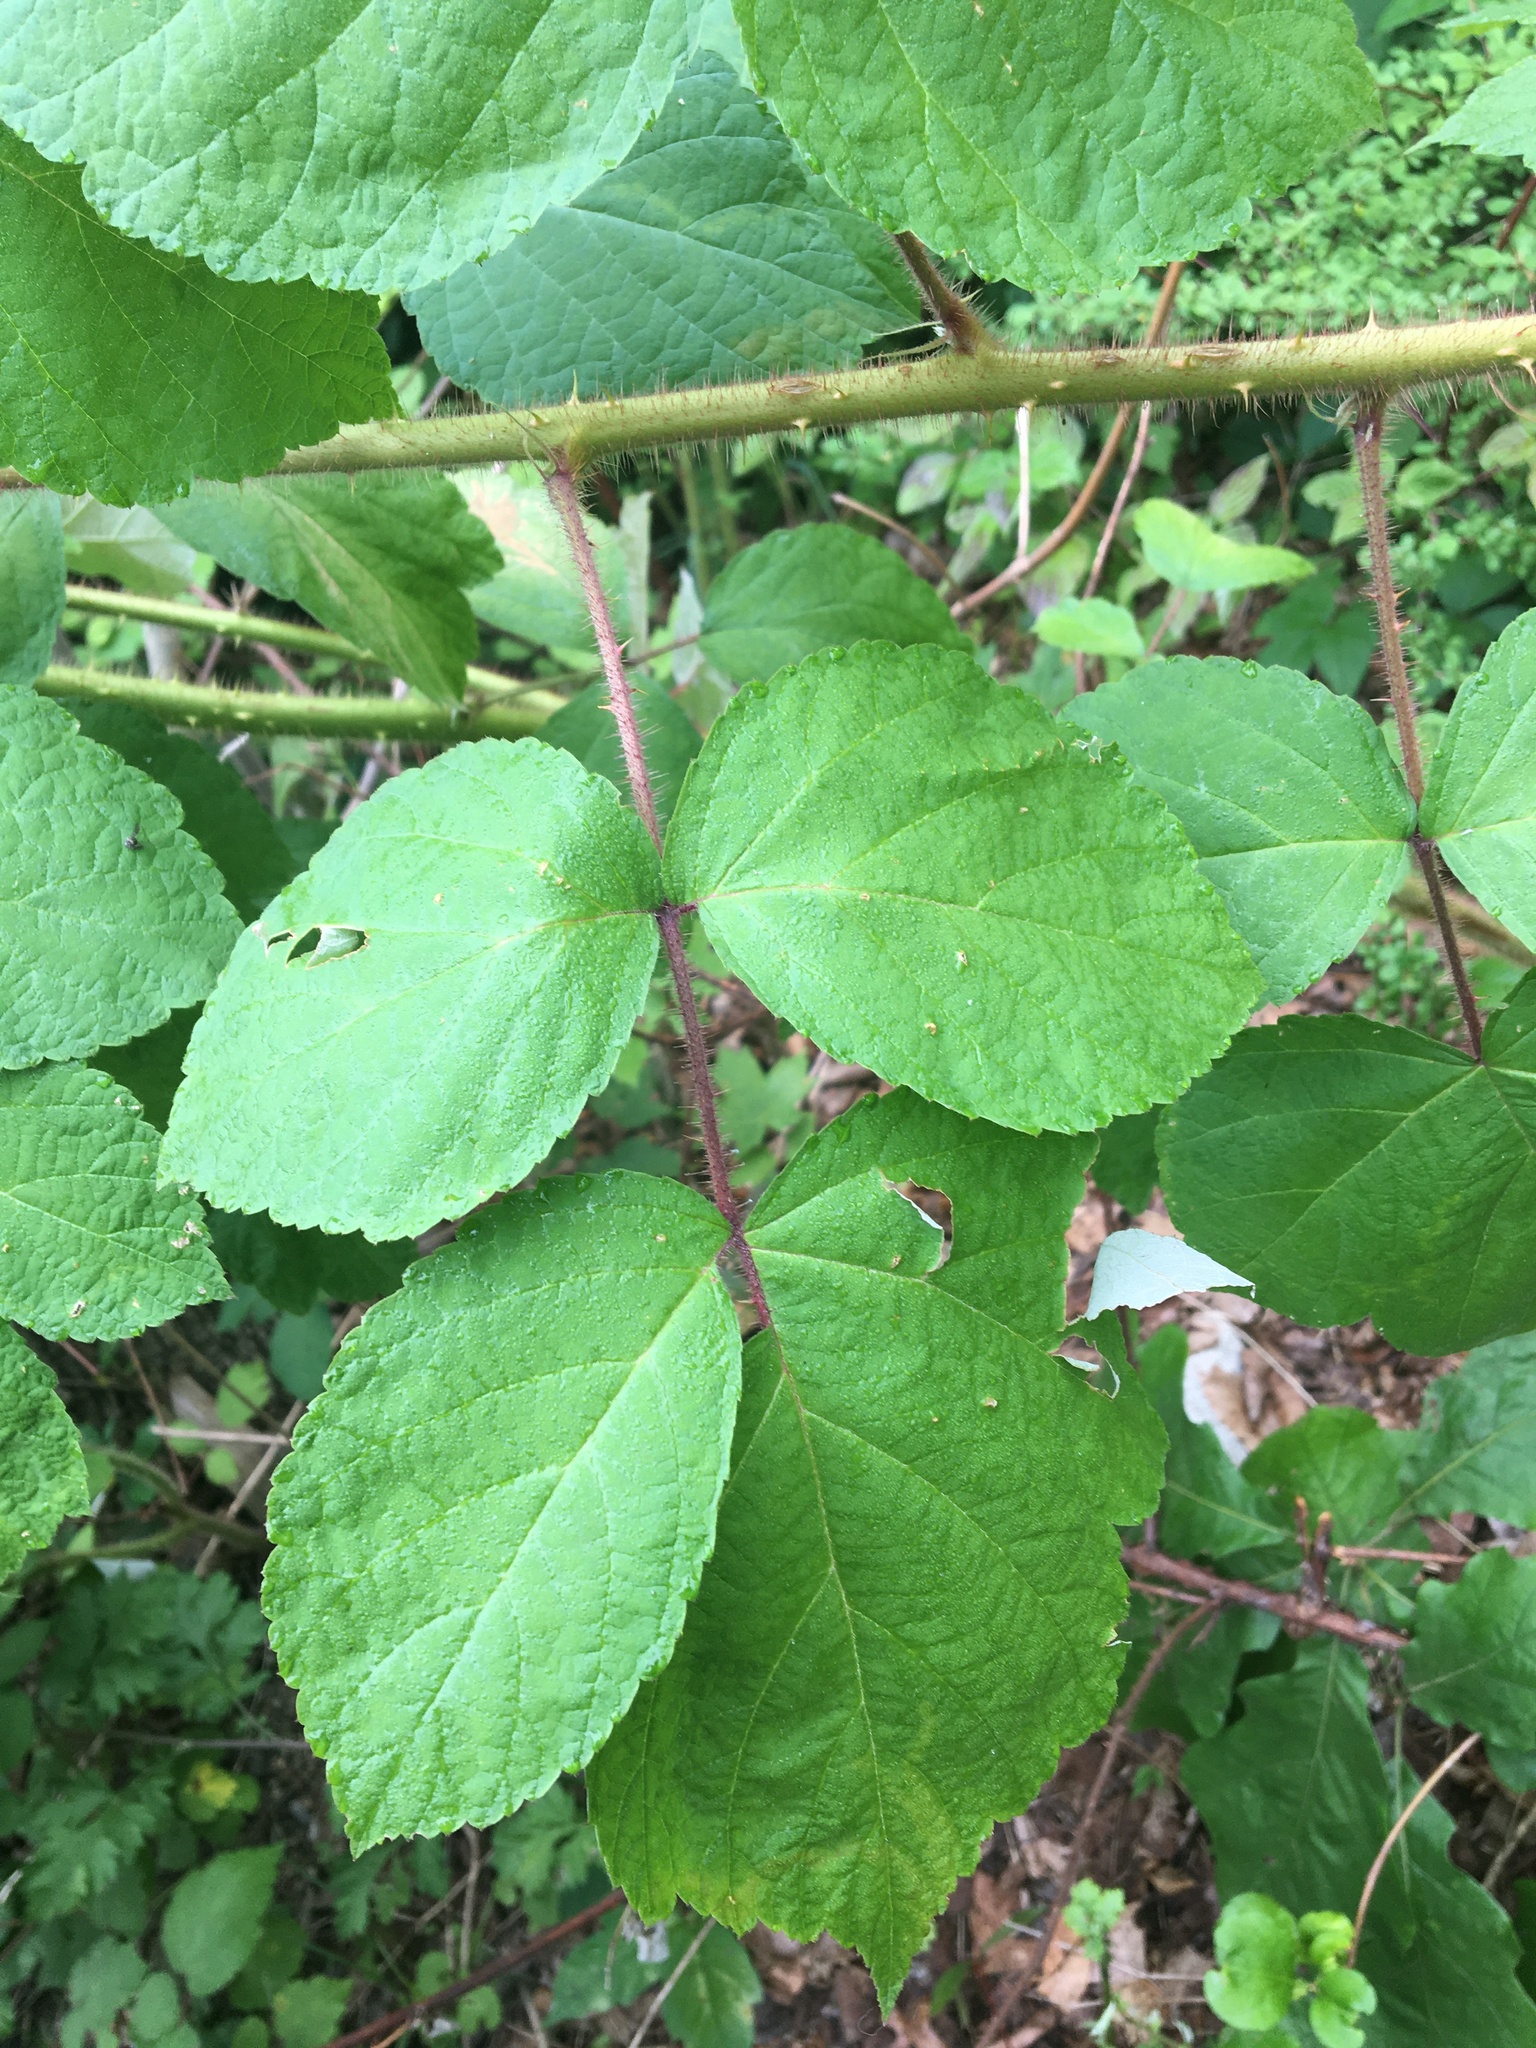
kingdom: Plantae
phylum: Tracheophyta
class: Magnoliopsida
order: Rosales
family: Rosaceae
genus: Rubus
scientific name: Rubus phoenicolasius
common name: Japanese wineberry
